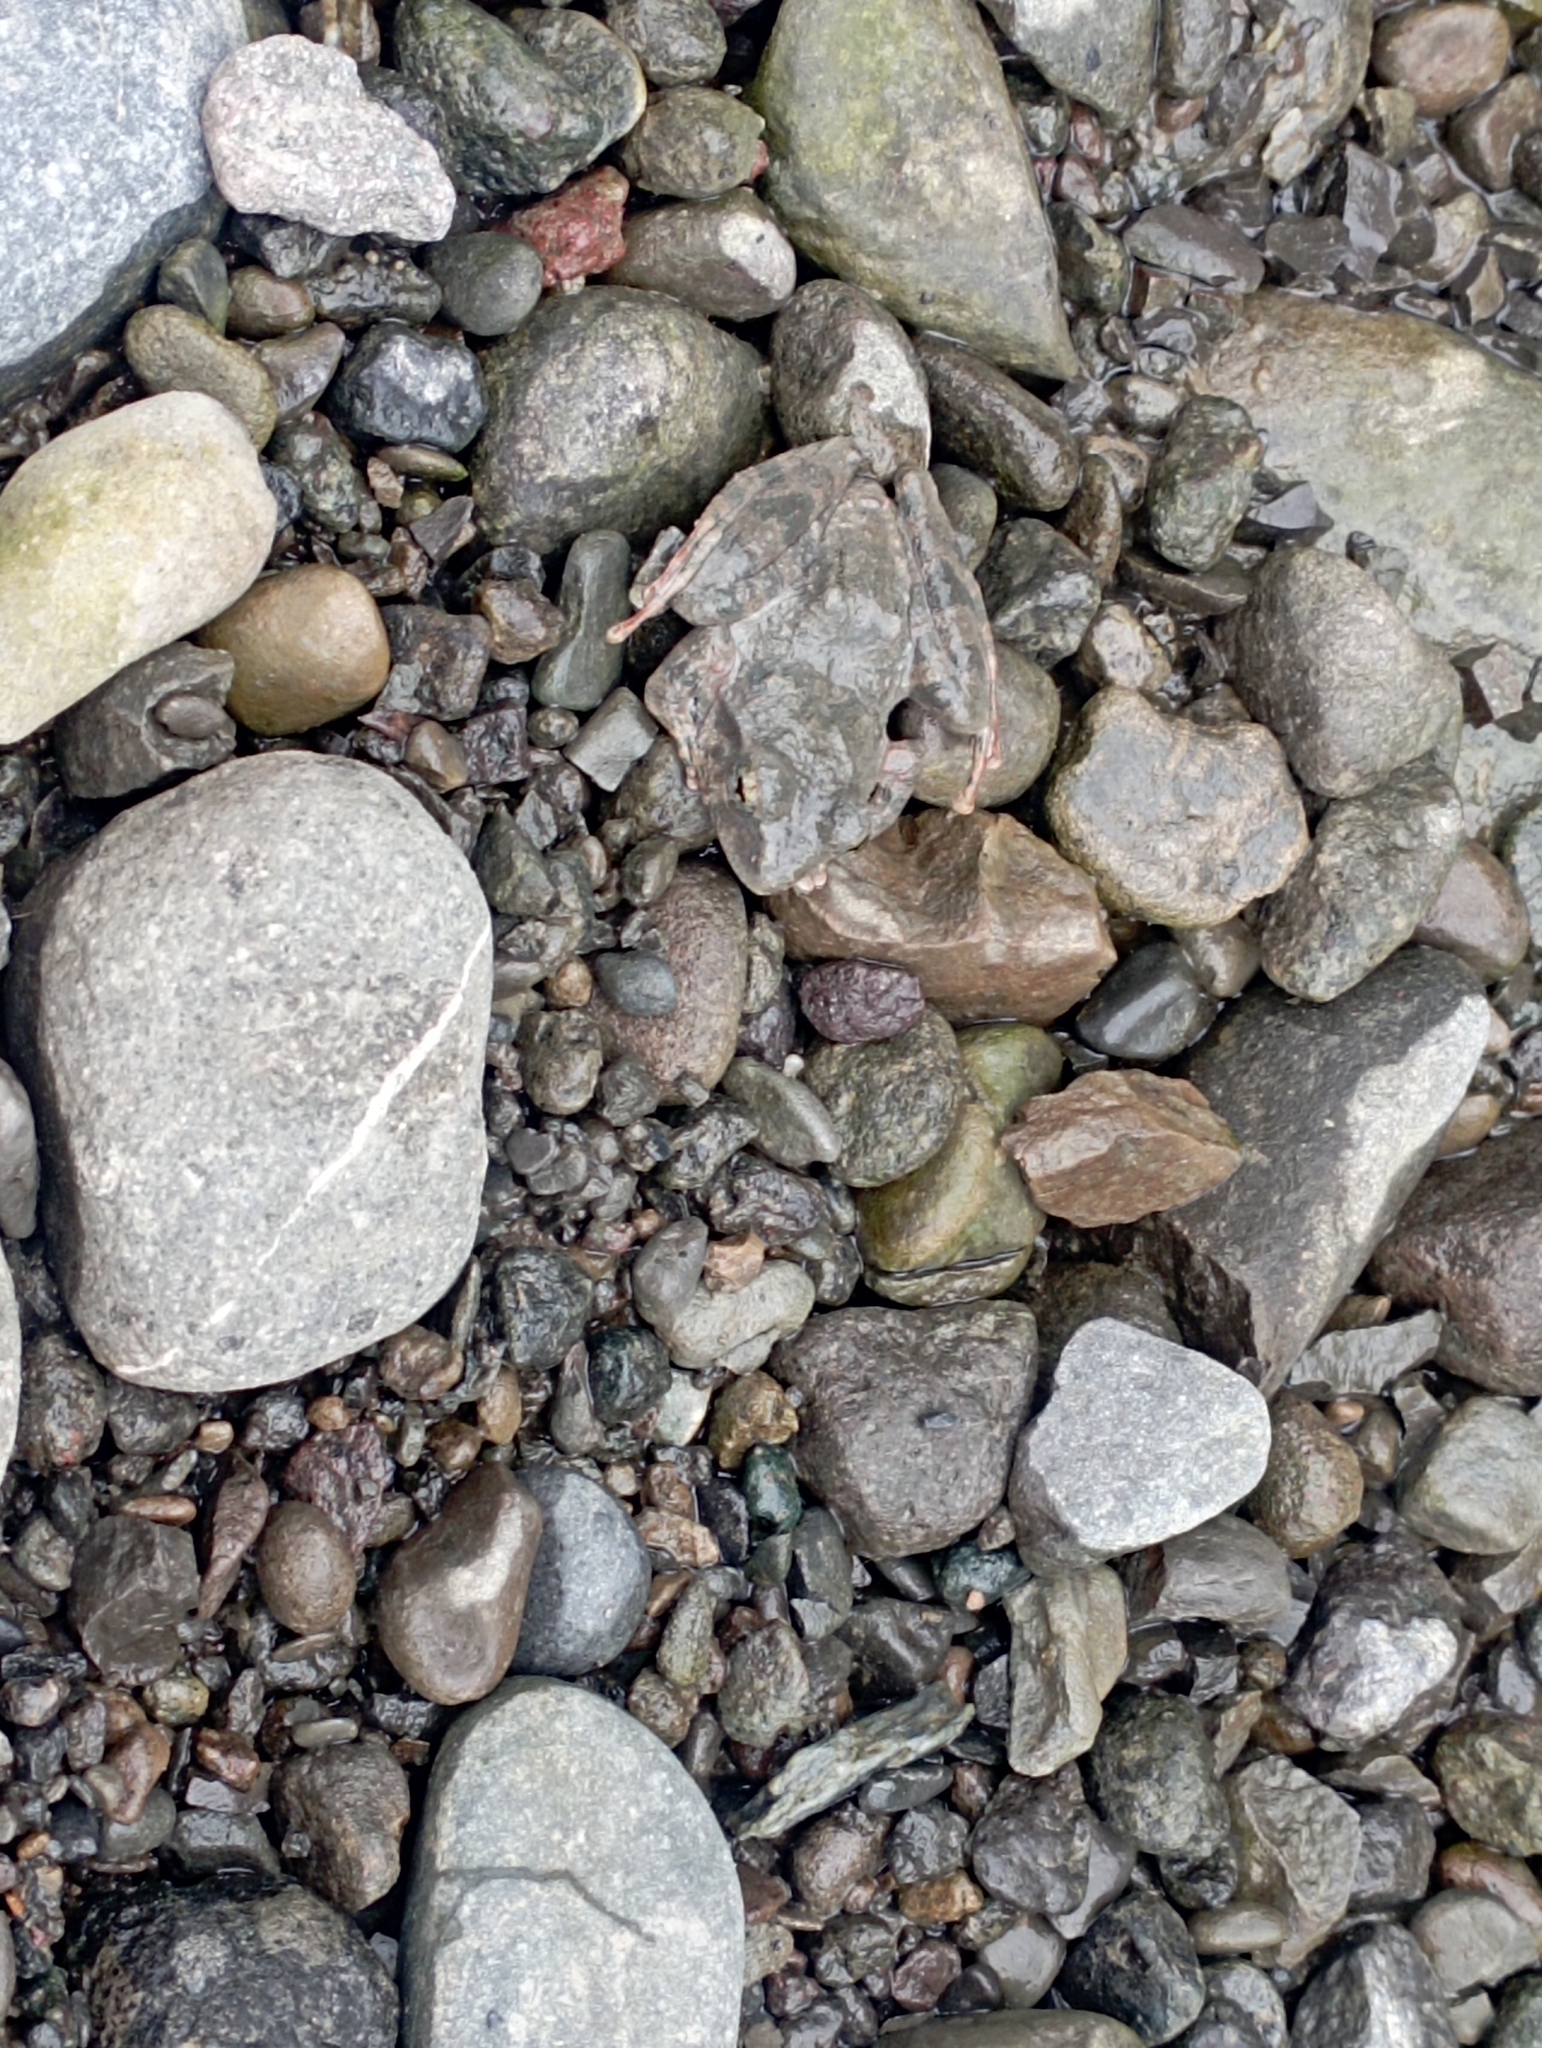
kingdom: Animalia
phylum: Chordata
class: Amphibia
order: Anura
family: Rhacophoridae
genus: Buergeria
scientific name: Buergeria otai
